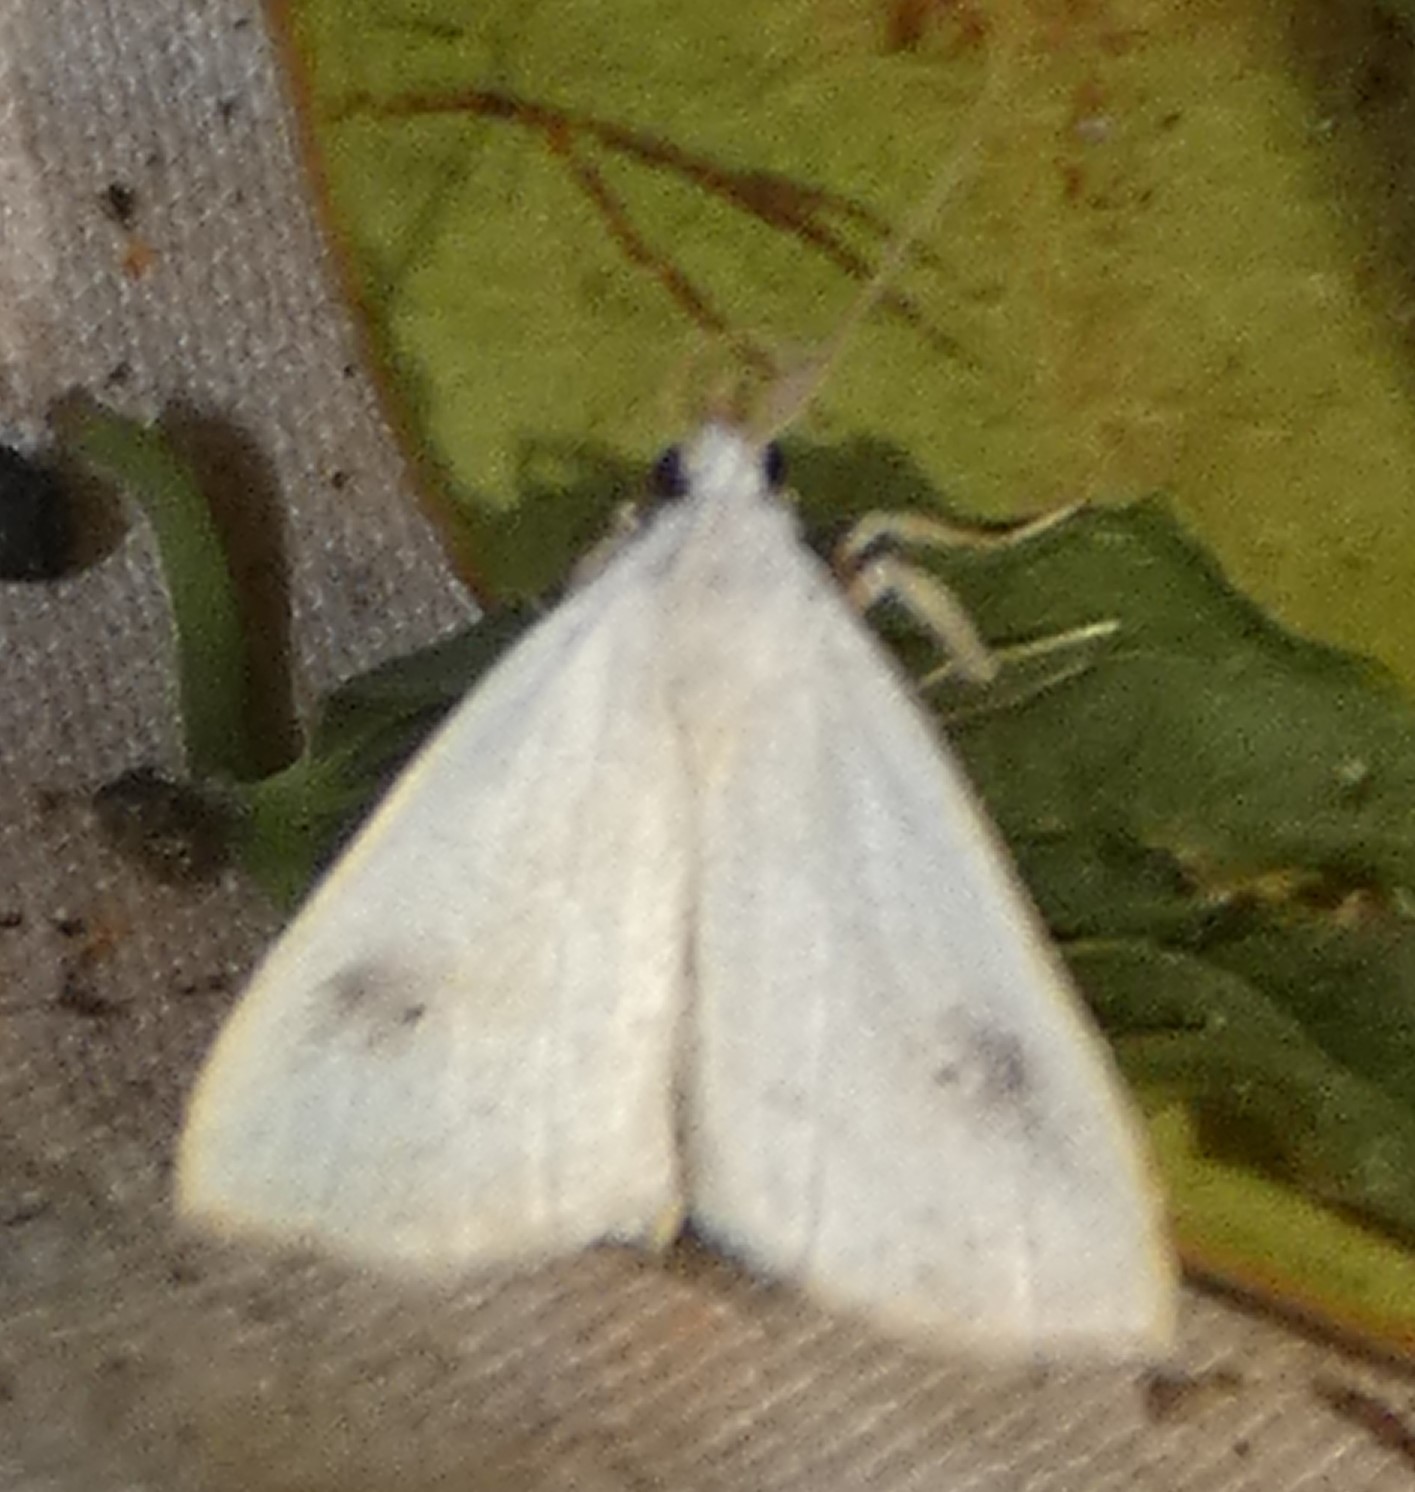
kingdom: Animalia
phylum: Arthropoda
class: Insecta
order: Lepidoptera
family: Erebidae
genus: Rivula
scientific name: Rivula propinqualis
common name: Spotted grass moth
